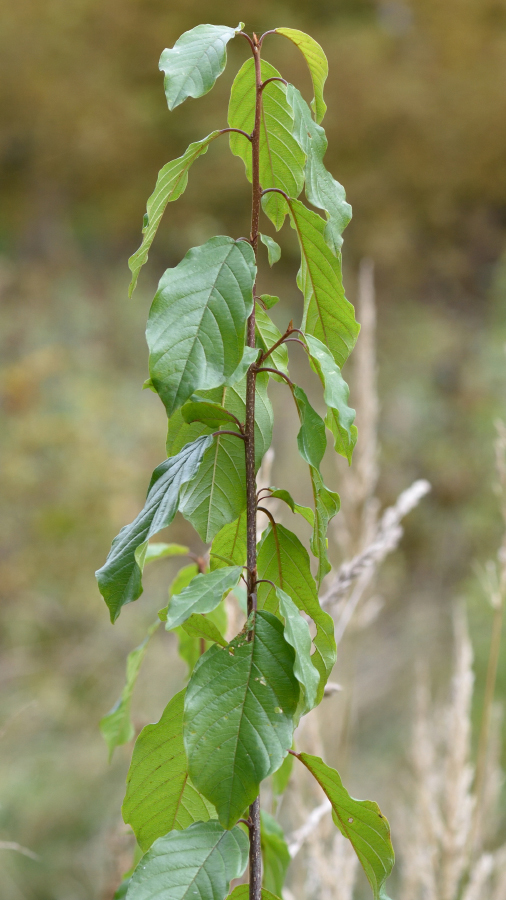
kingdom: Plantae
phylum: Tracheophyta
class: Magnoliopsida
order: Rosales
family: Rhamnaceae
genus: Frangula
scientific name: Frangula alnus
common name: Alder buckthorn
